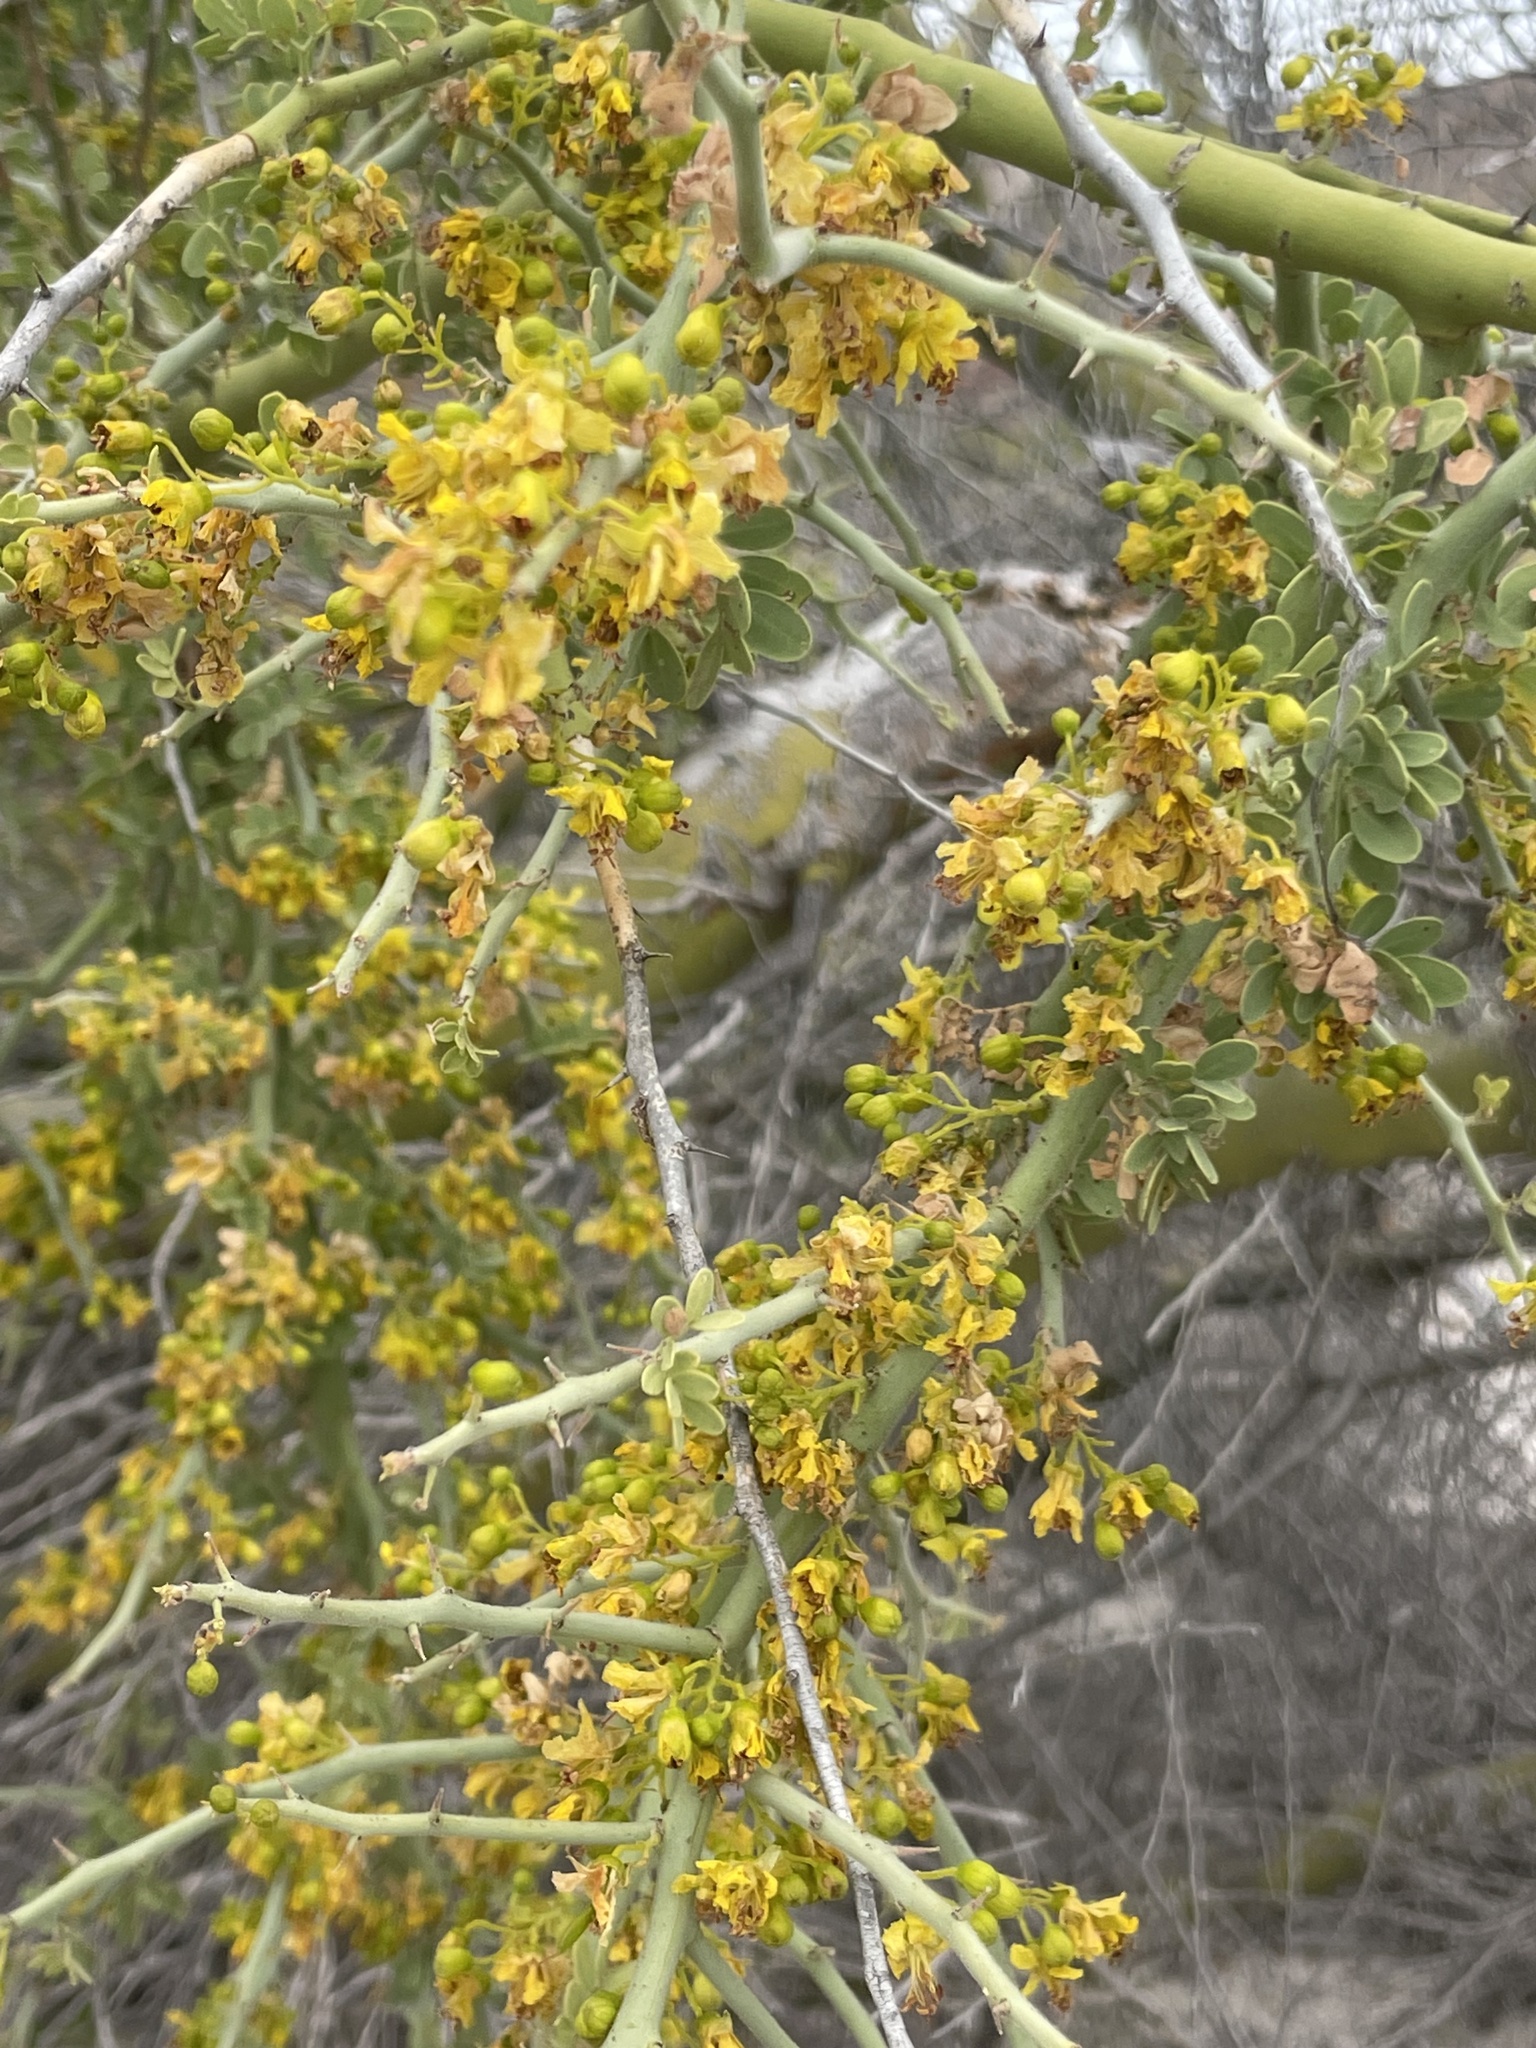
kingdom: Plantae
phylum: Tracheophyta
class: Magnoliopsida
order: Fabales
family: Fabaceae
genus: Parkinsonia
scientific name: Parkinsonia florida
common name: Blue paloverde
